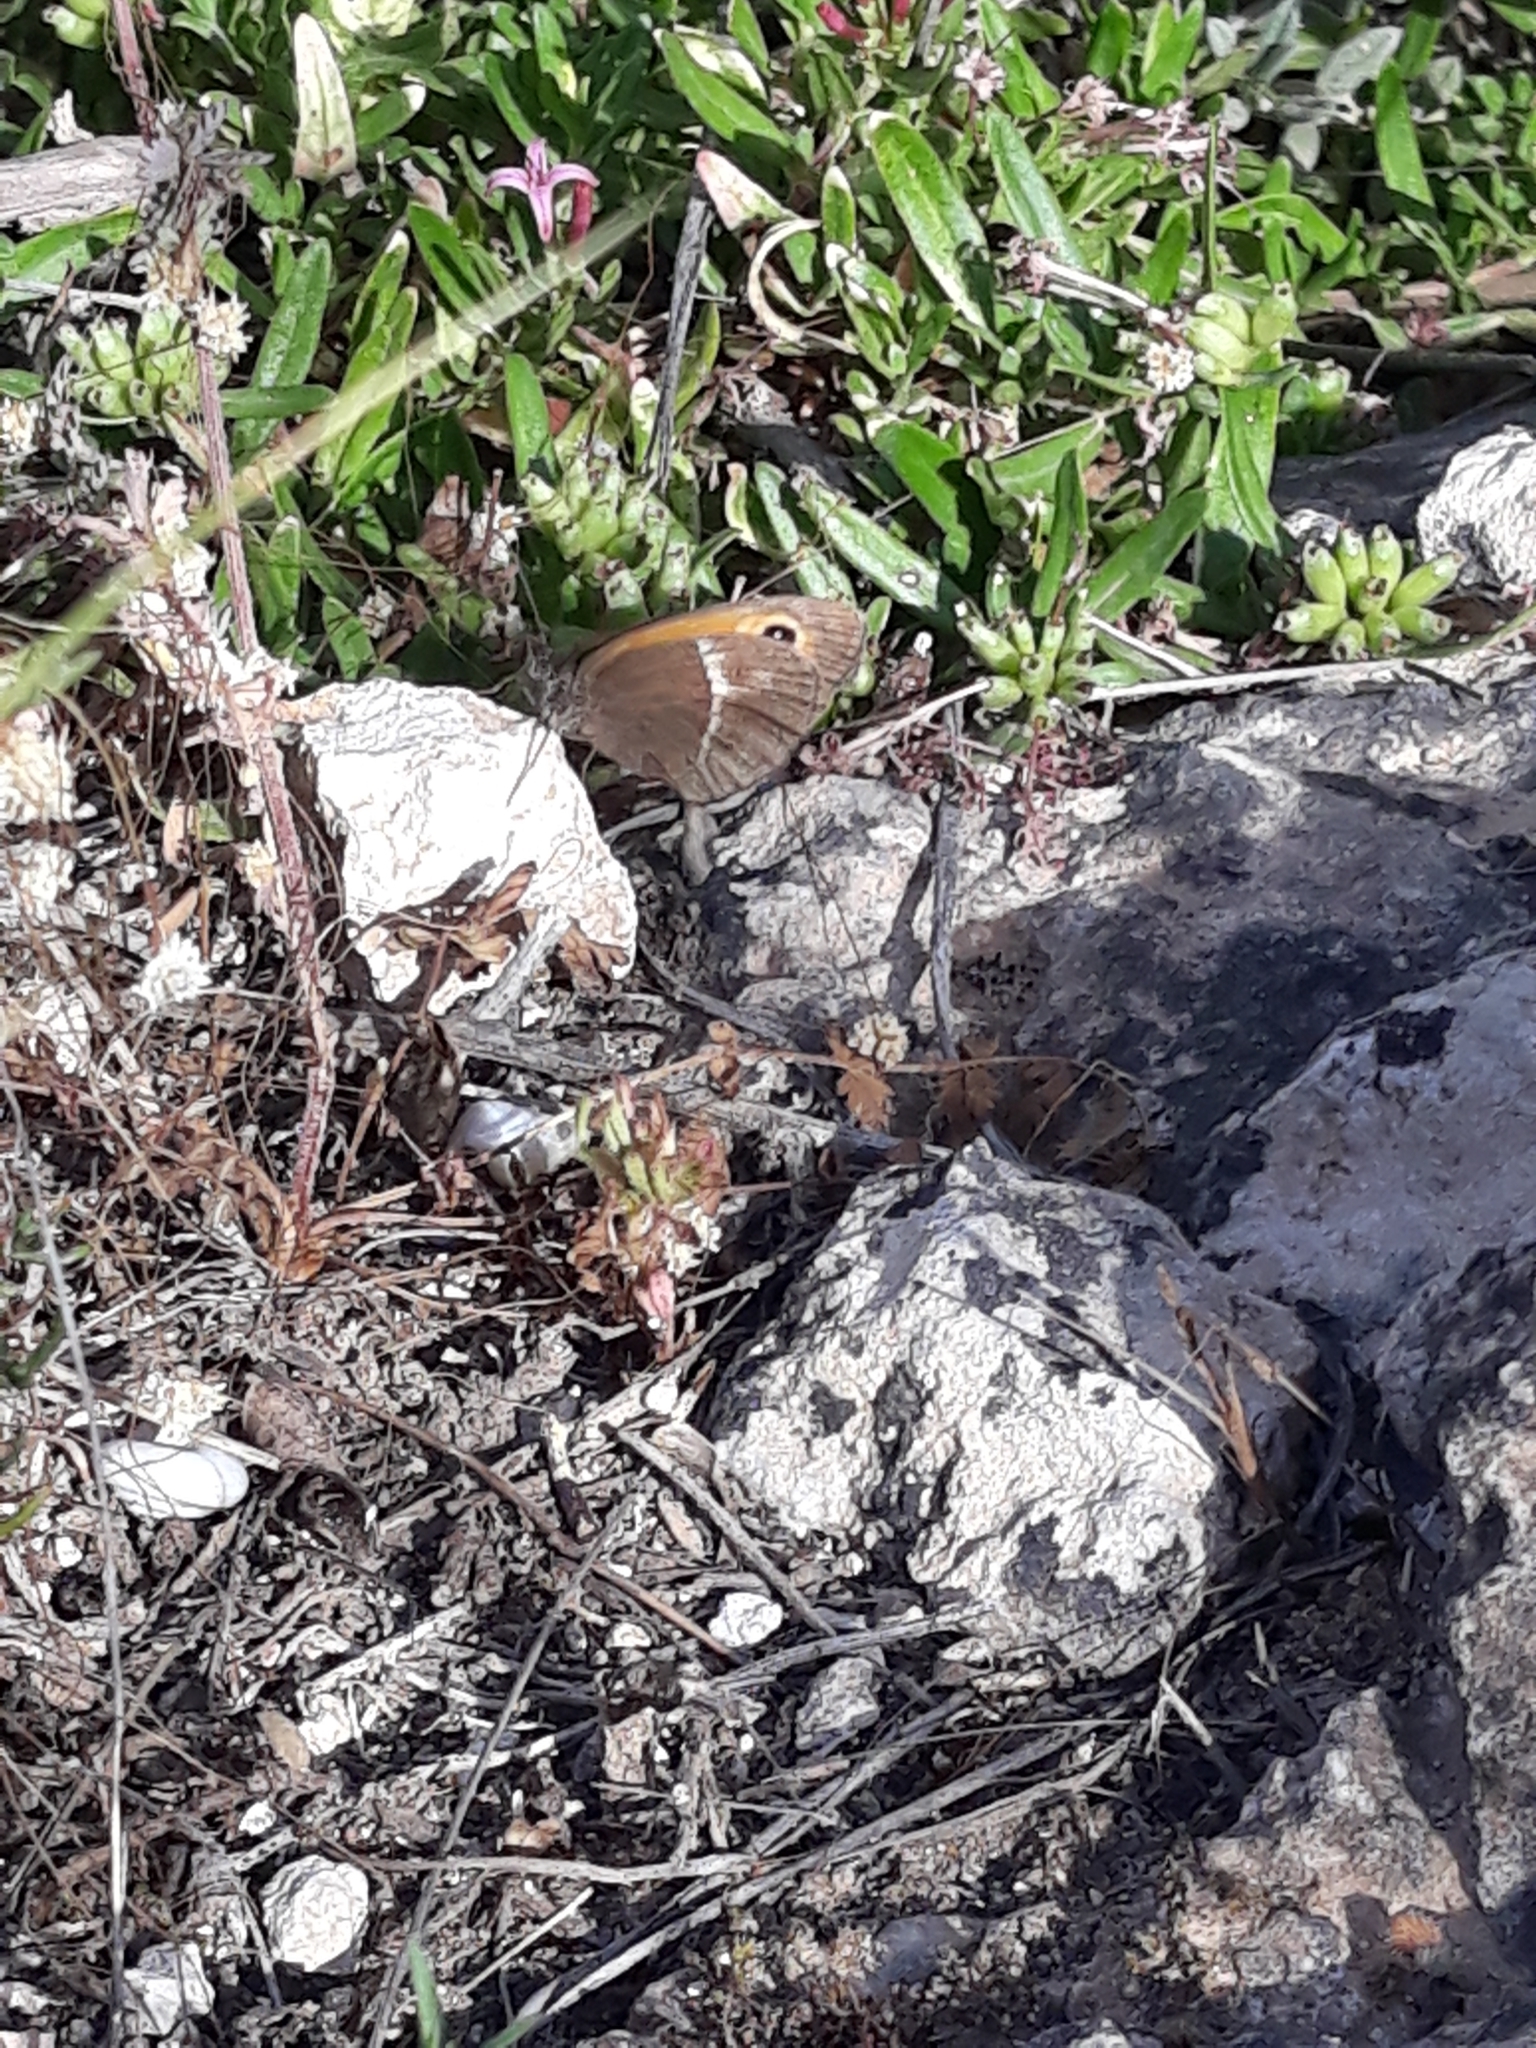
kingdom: Animalia
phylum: Arthropoda
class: Insecta
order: Lepidoptera
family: Nymphalidae
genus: Pyronia
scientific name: Pyronia bathseba
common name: Spanish gatekeeper
